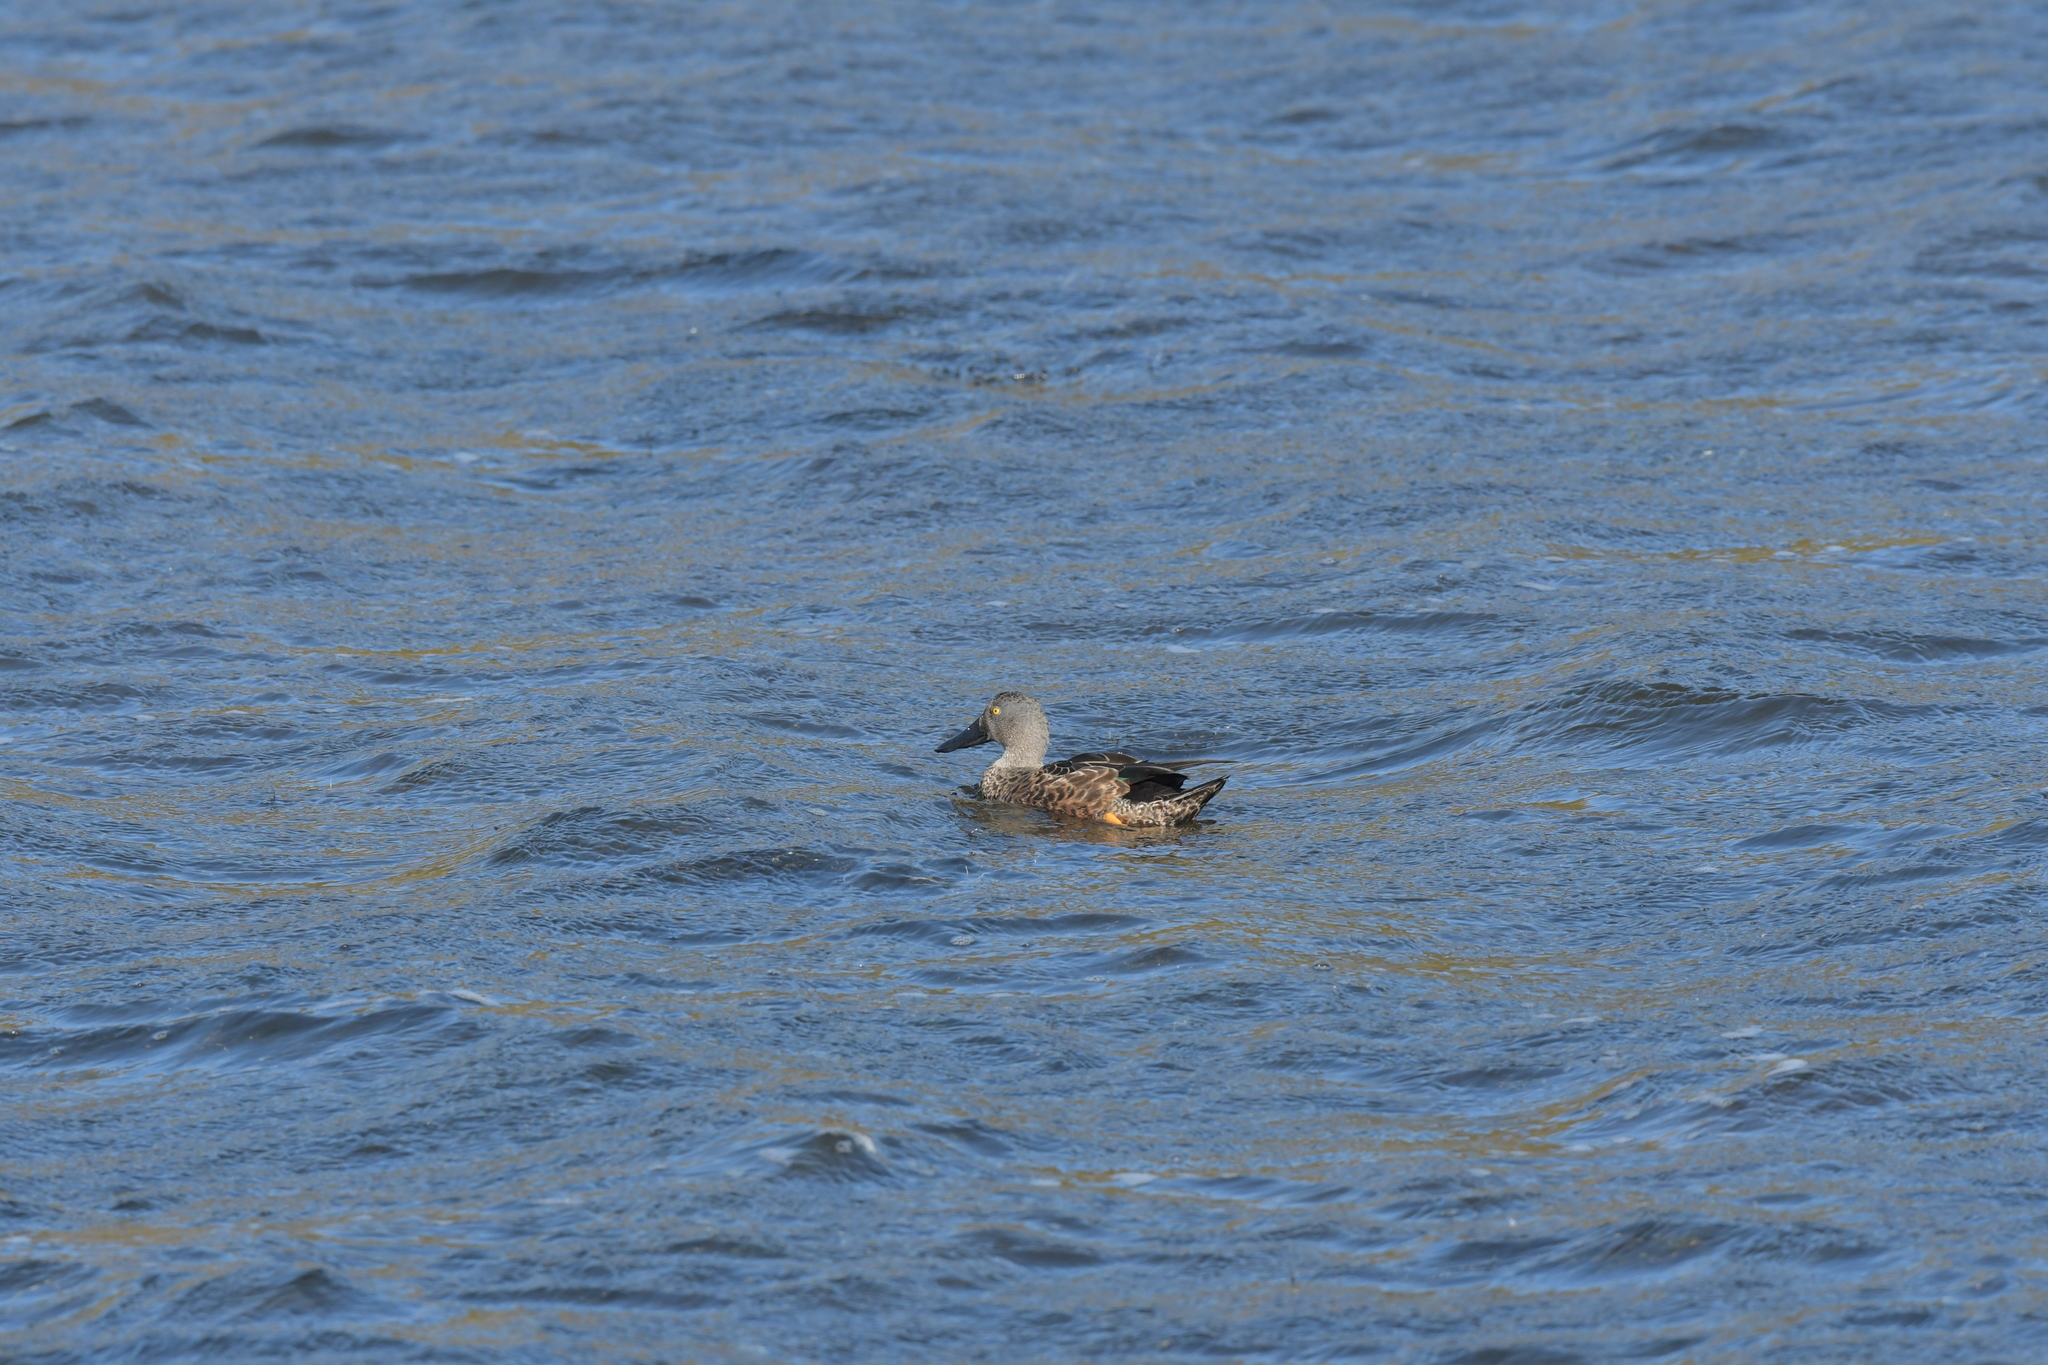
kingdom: Animalia
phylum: Chordata
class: Aves
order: Anseriformes
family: Anatidae
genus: Spatula
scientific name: Spatula rhynchotis
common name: Australian shoveler
